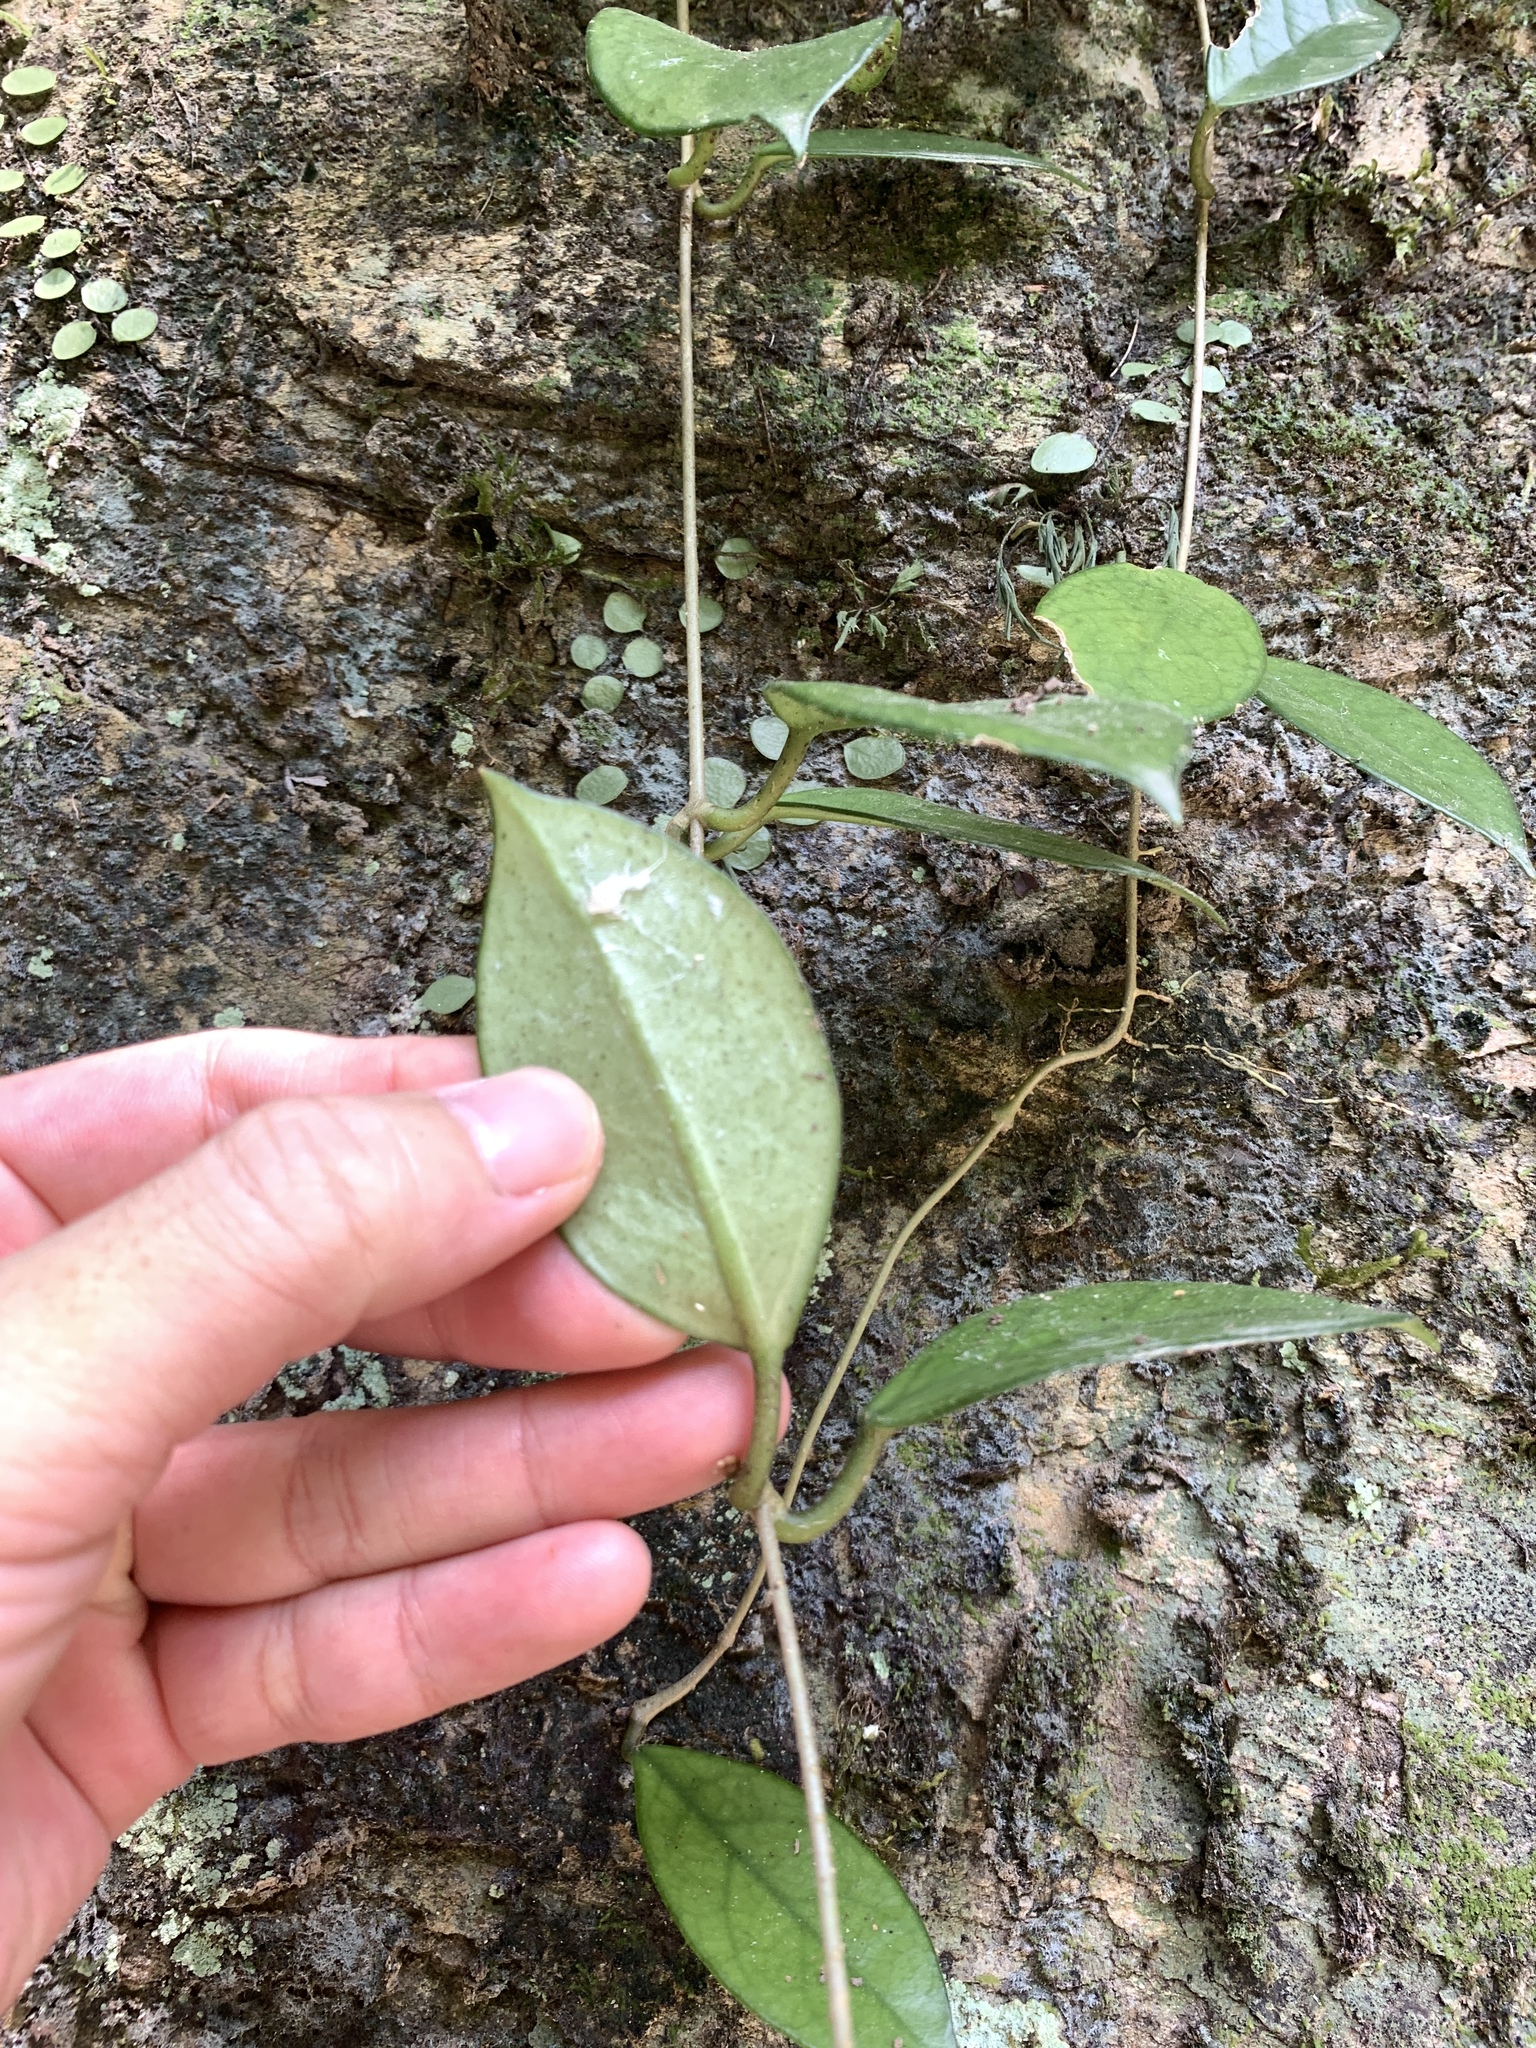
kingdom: Plantae
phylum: Tracheophyta
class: Magnoliopsida
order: Gentianales
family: Apocynaceae
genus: Hoya
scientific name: Hoya carnosa
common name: Honeyplant
